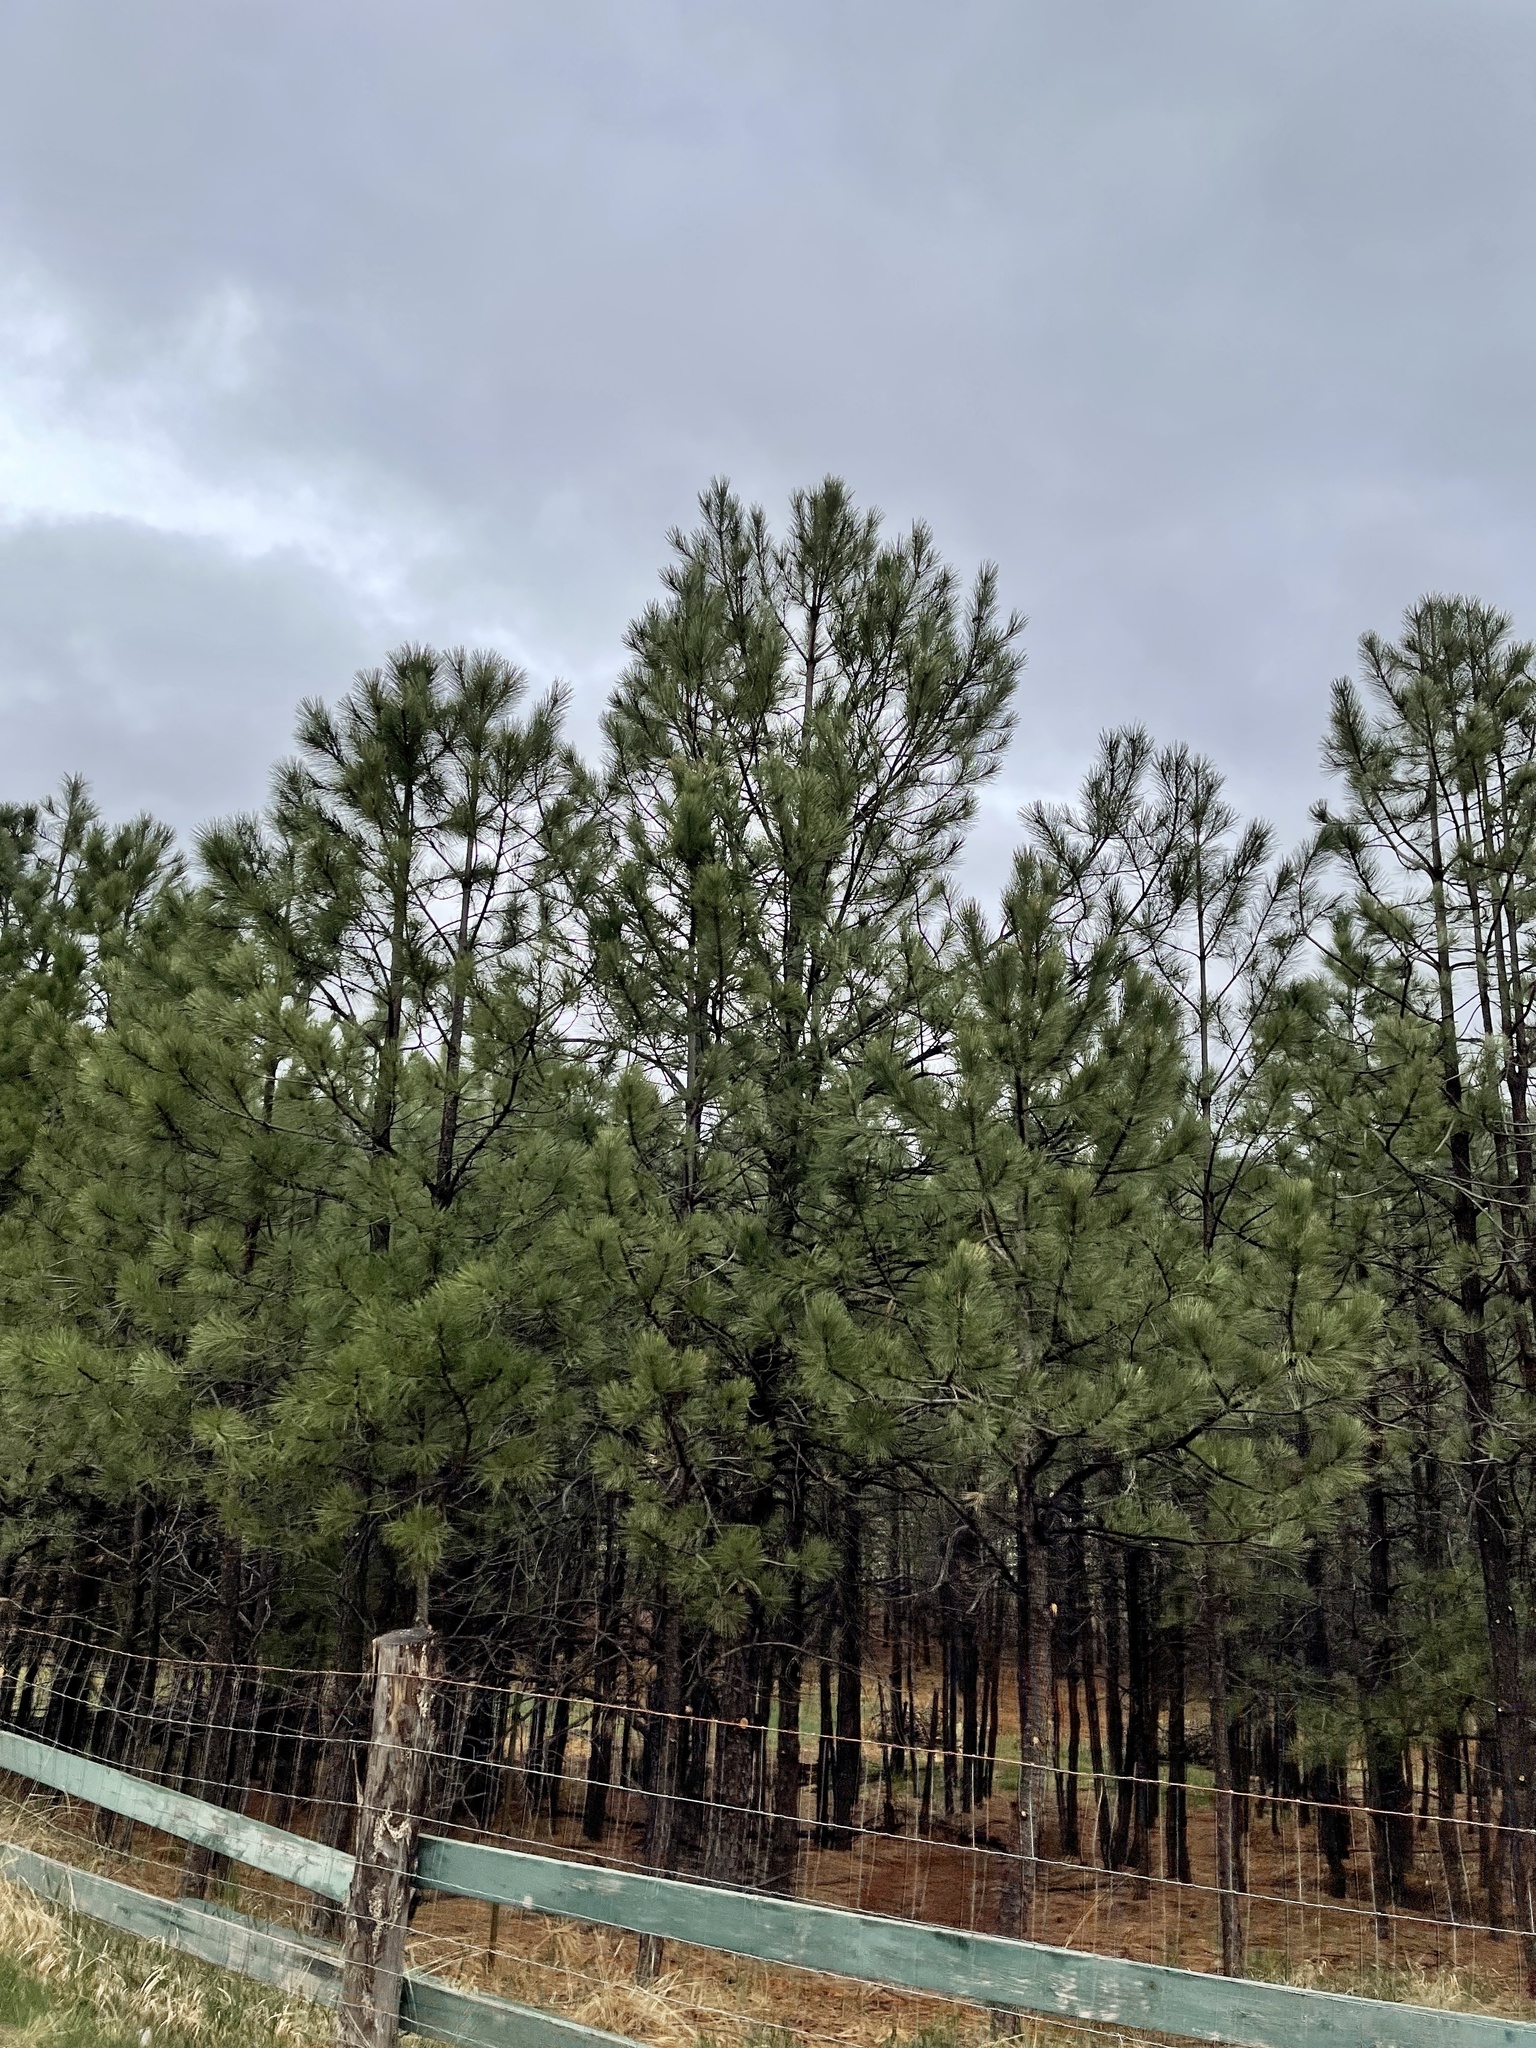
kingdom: Plantae
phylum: Tracheophyta
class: Pinopsida
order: Pinales
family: Pinaceae
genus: Pinus
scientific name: Pinus ponderosa
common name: Western yellow-pine
